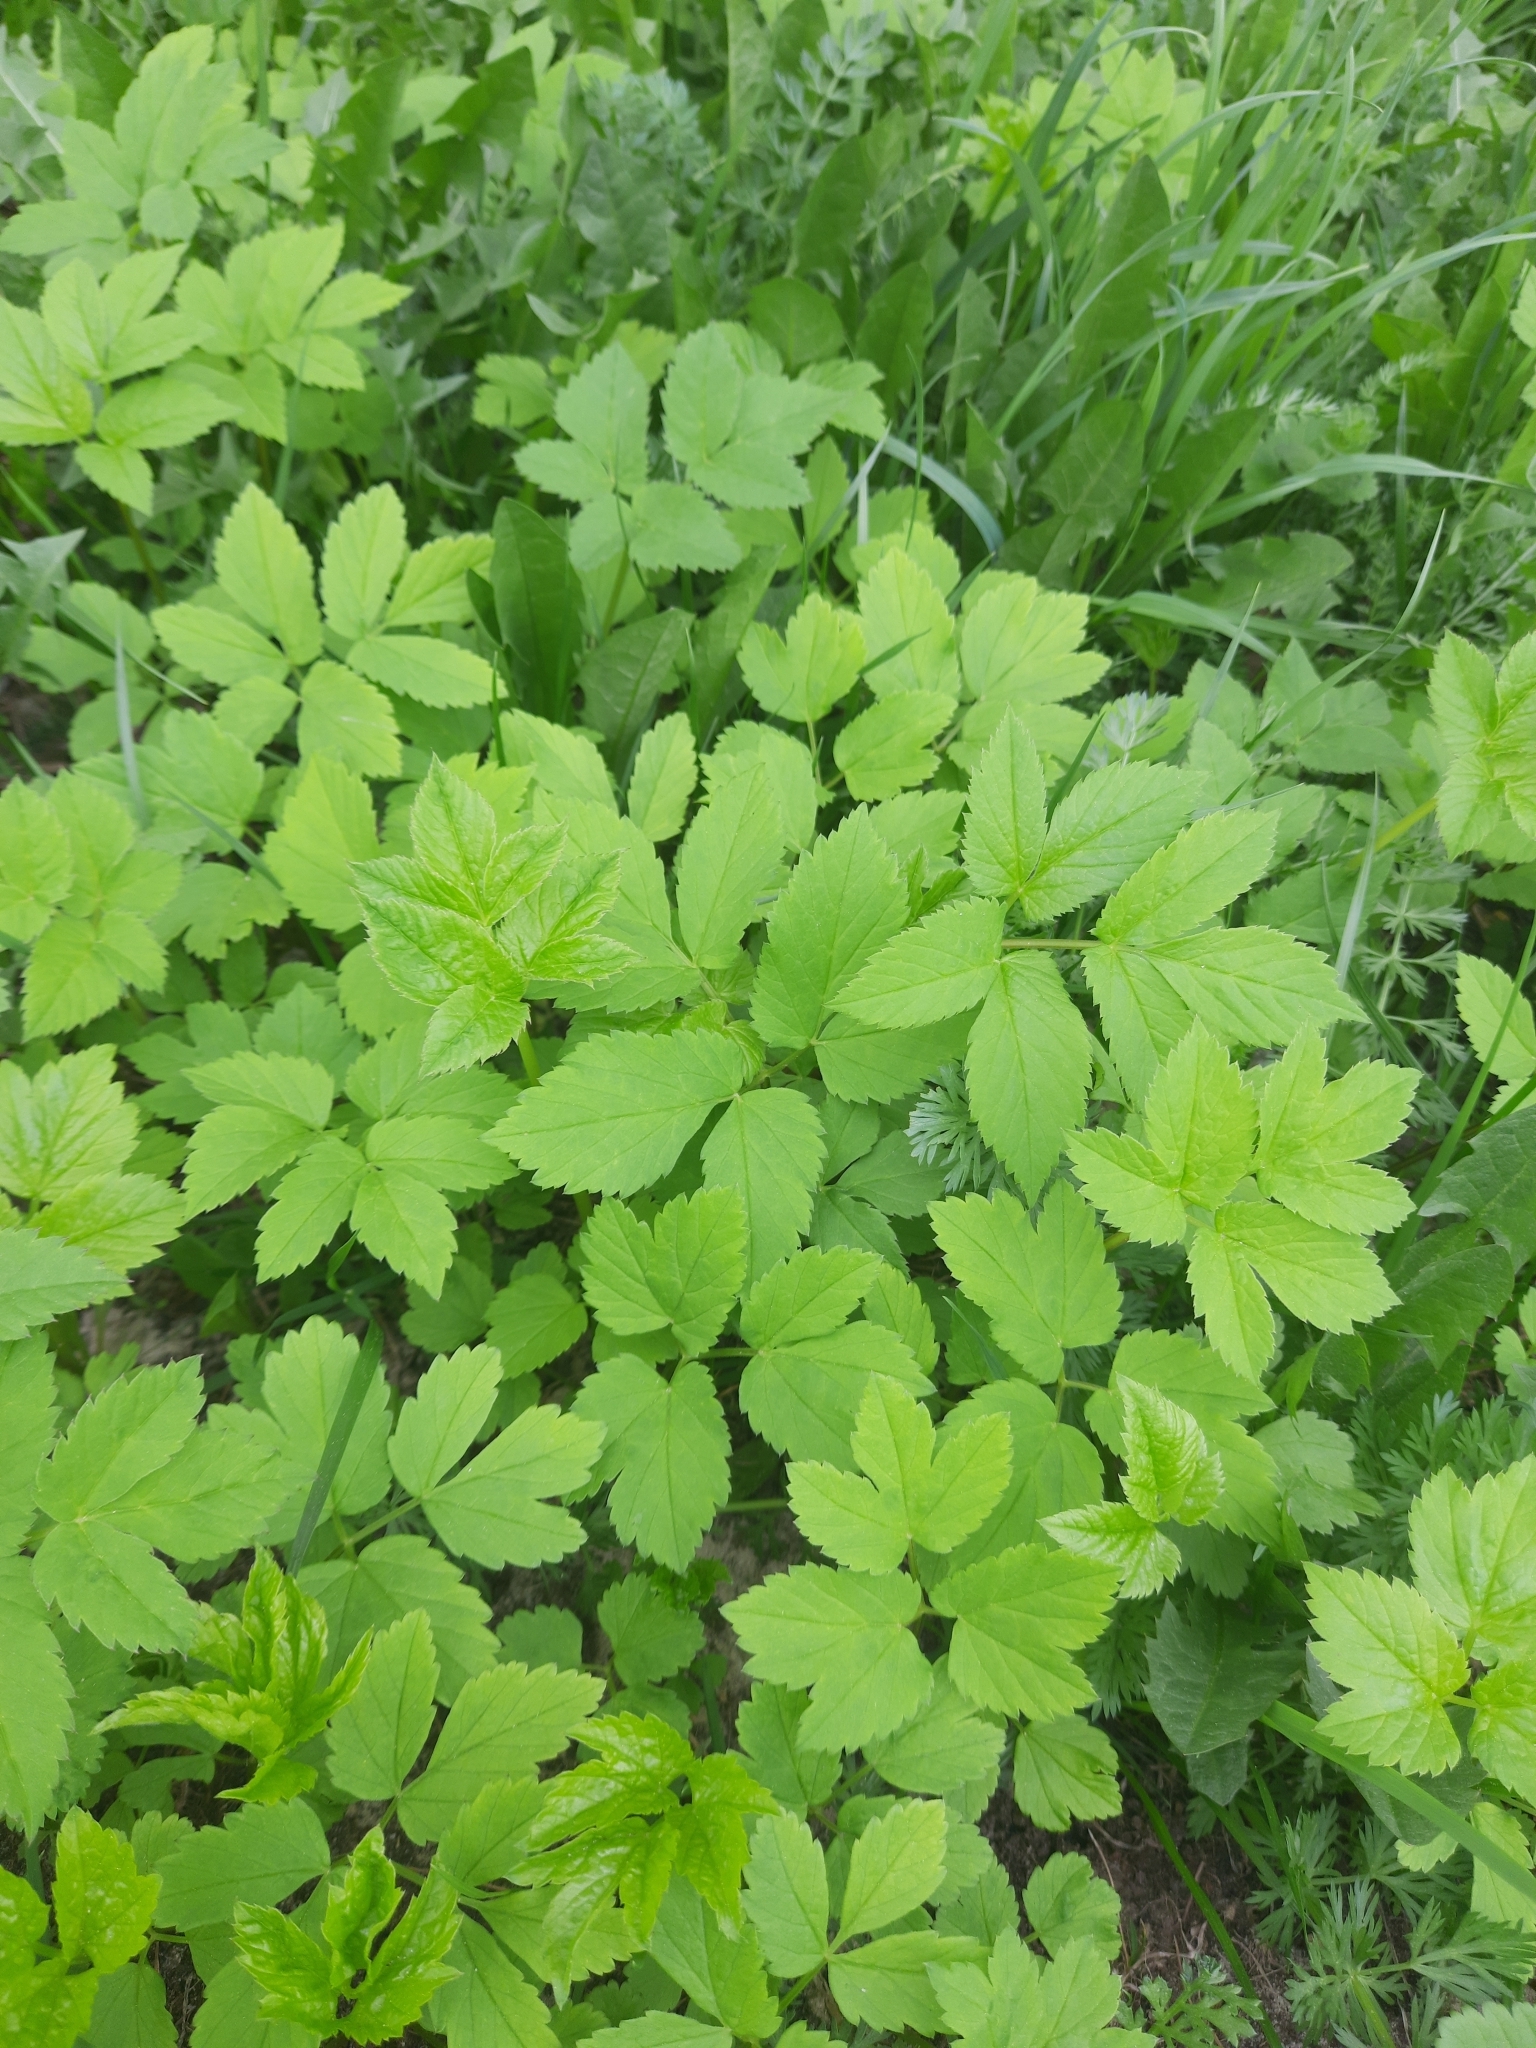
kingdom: Plantae
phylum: Tracheophyta
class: Magnoliopsida
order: Apiales
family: Apiaceae
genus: Aegopodium
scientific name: Aegopodium podagraria
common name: Ground-elder
